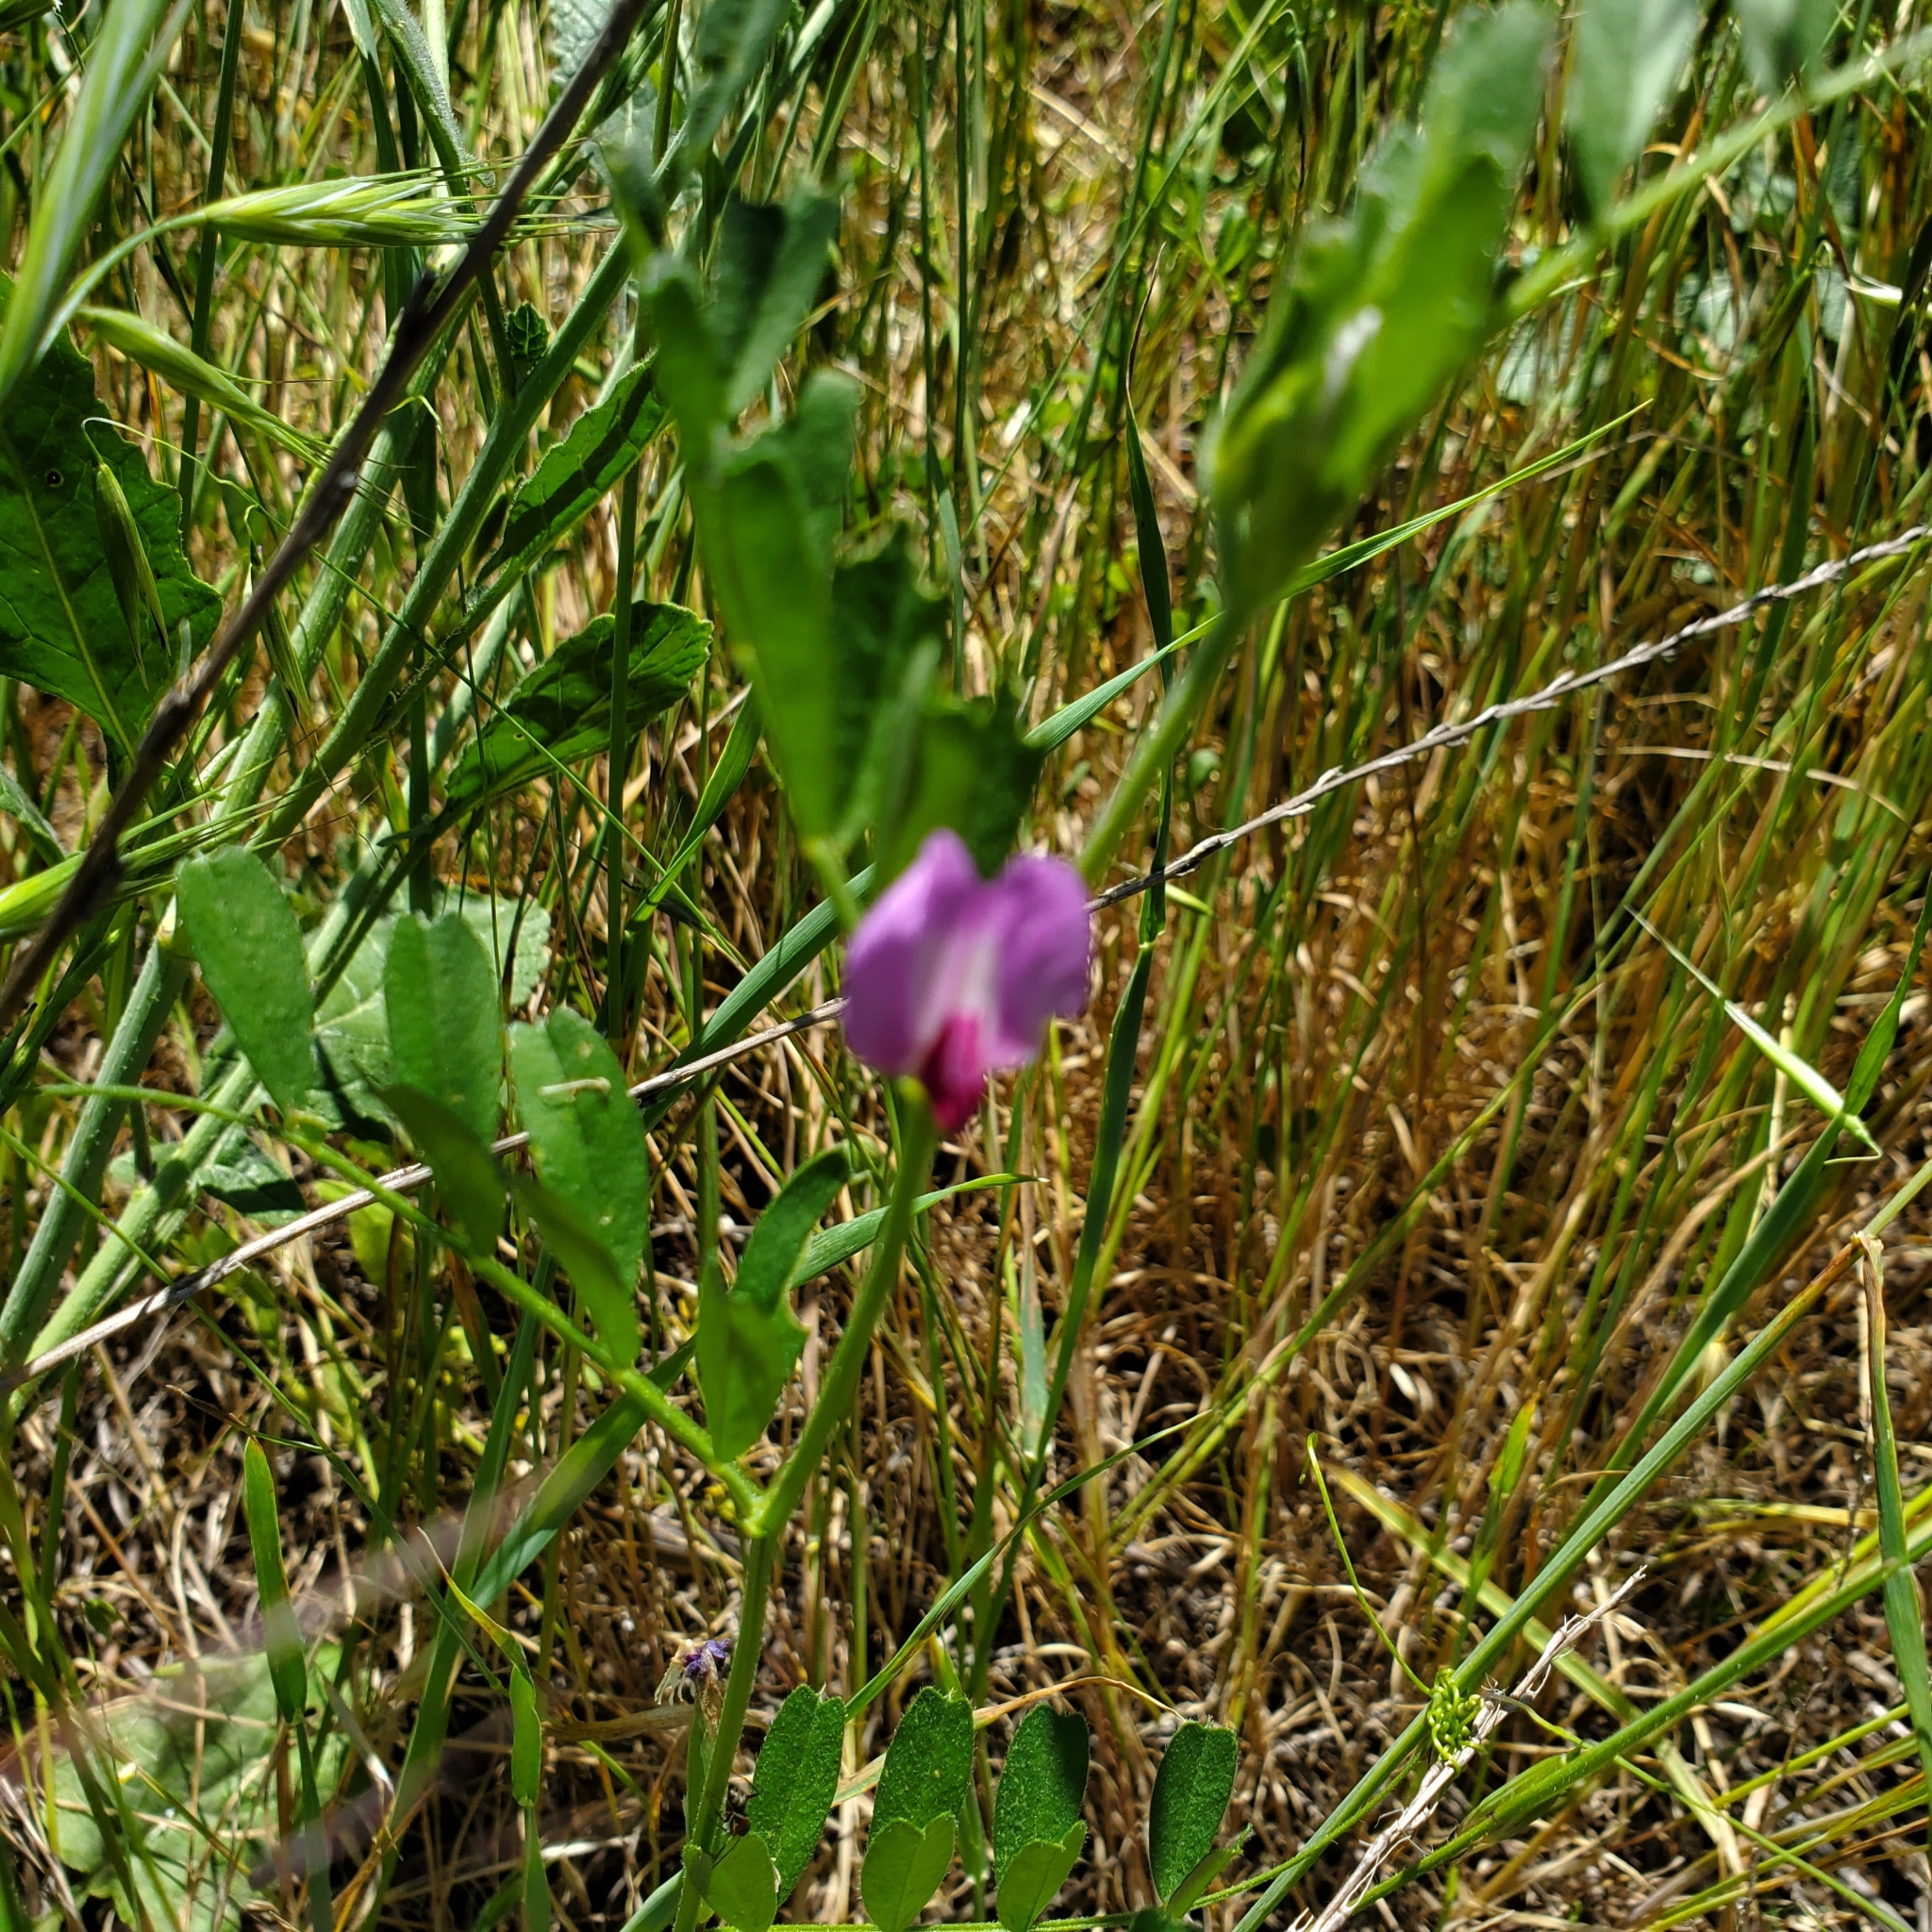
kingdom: Plantae
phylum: Tracheophyta
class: Magnoliopsida
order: Fabales
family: Fabaceae
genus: Vicia
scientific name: Vicia sativa
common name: Garden vetch
